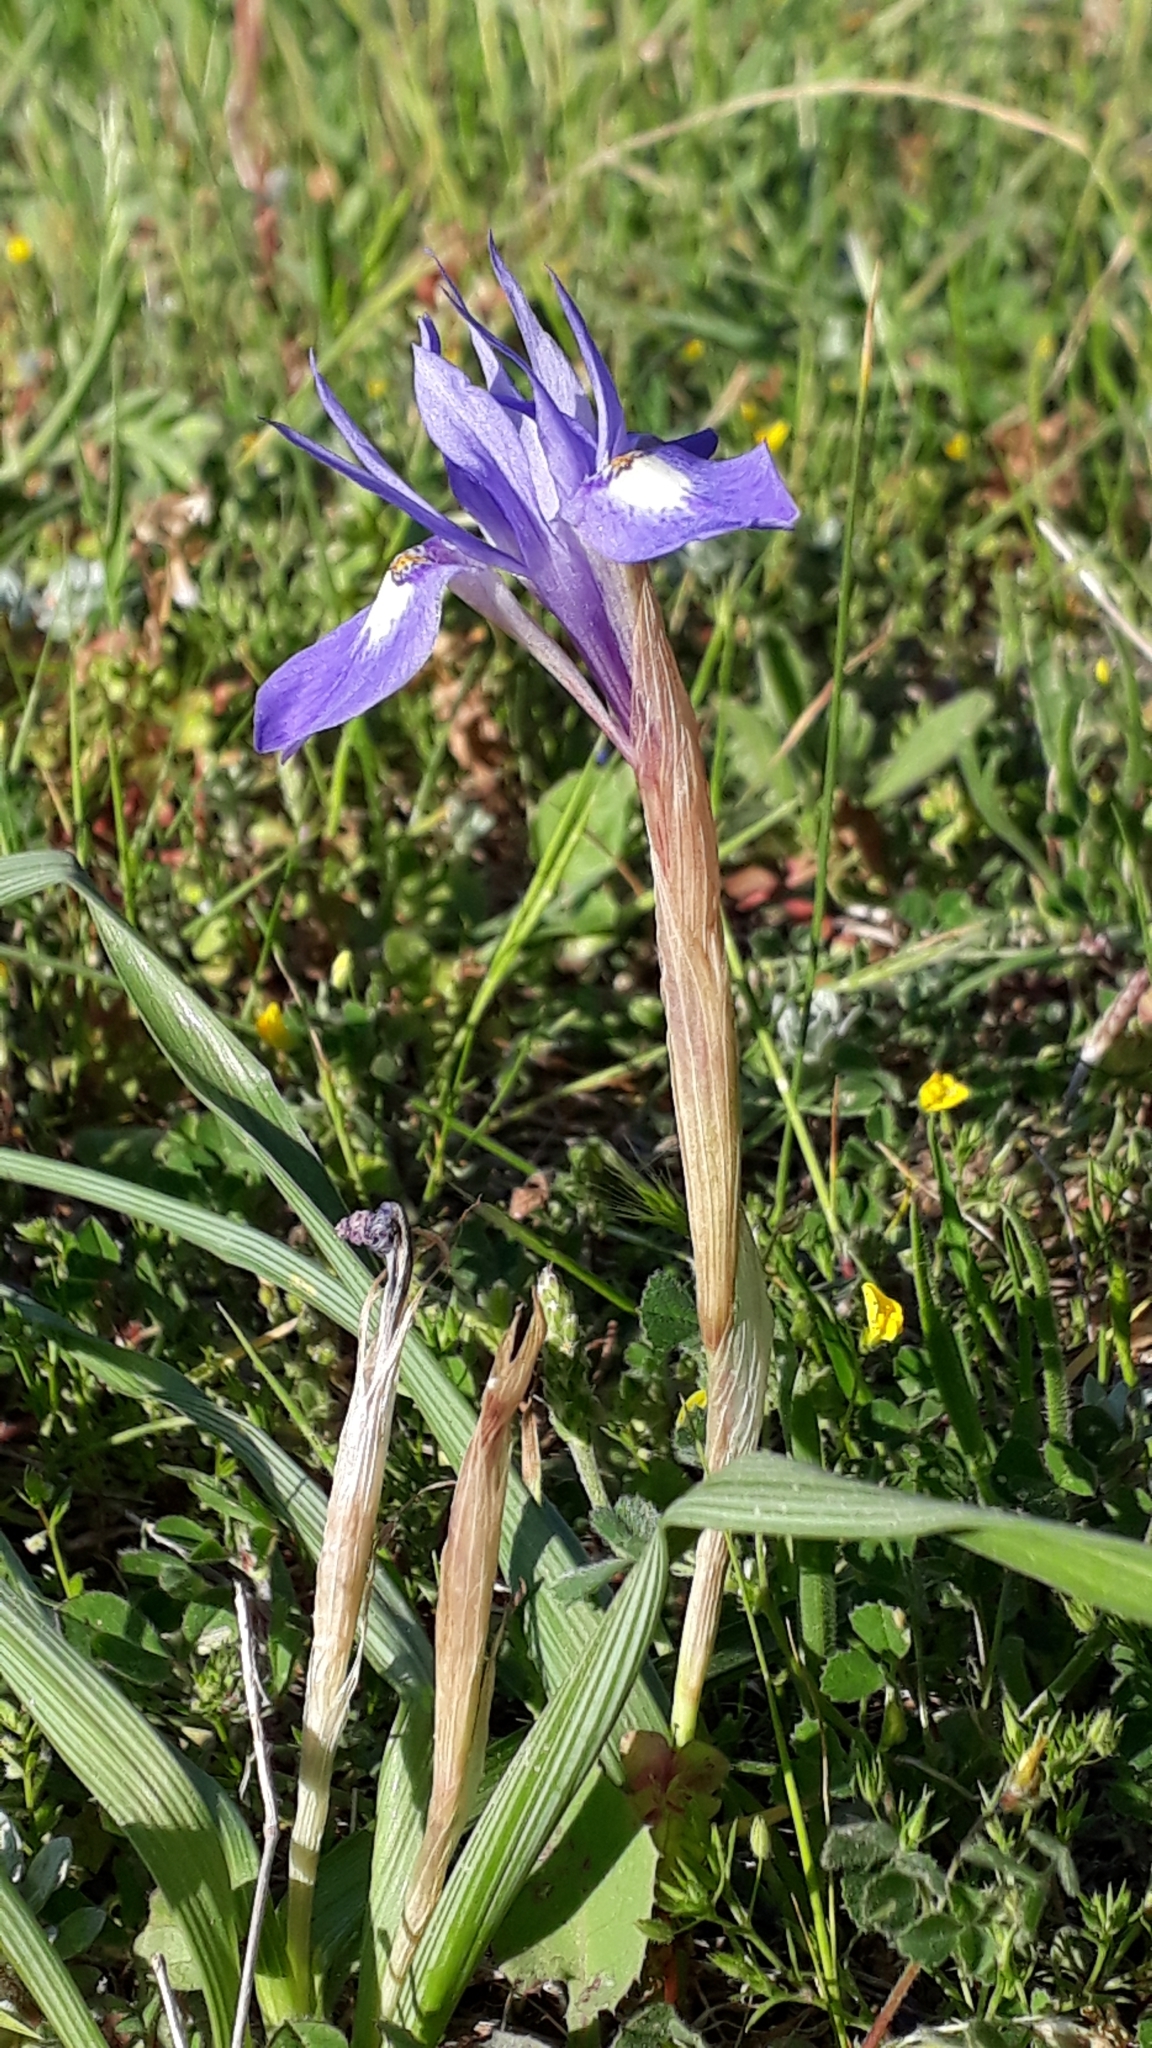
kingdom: Plantae
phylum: Tracheophyta
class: Liliopsida
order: Asparagales
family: Iridaceae
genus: Moraea
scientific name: Moraea sisyrinchium
